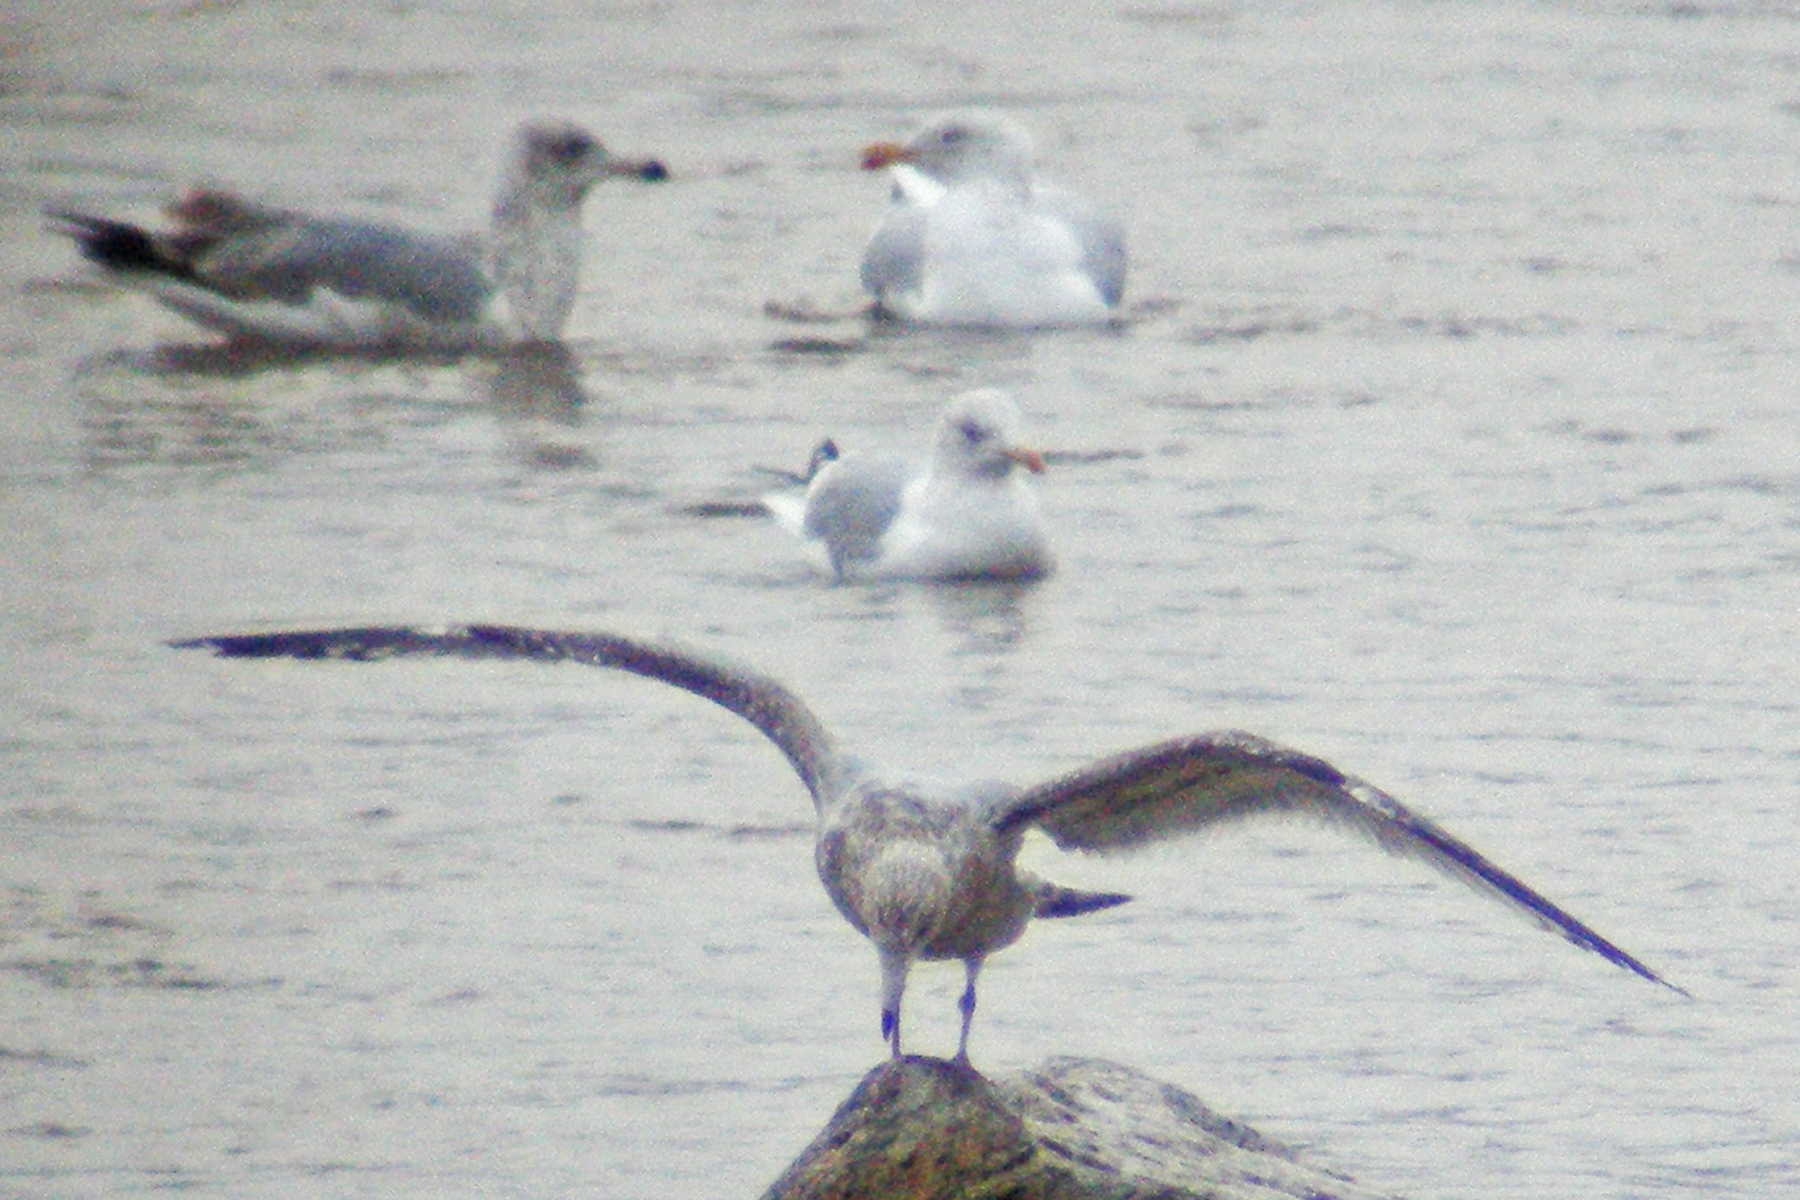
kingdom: Animalia
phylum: Chordata
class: Aves
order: Charadriiformes
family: Laridae
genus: Larus
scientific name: Larus argentatus
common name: Herring gull
